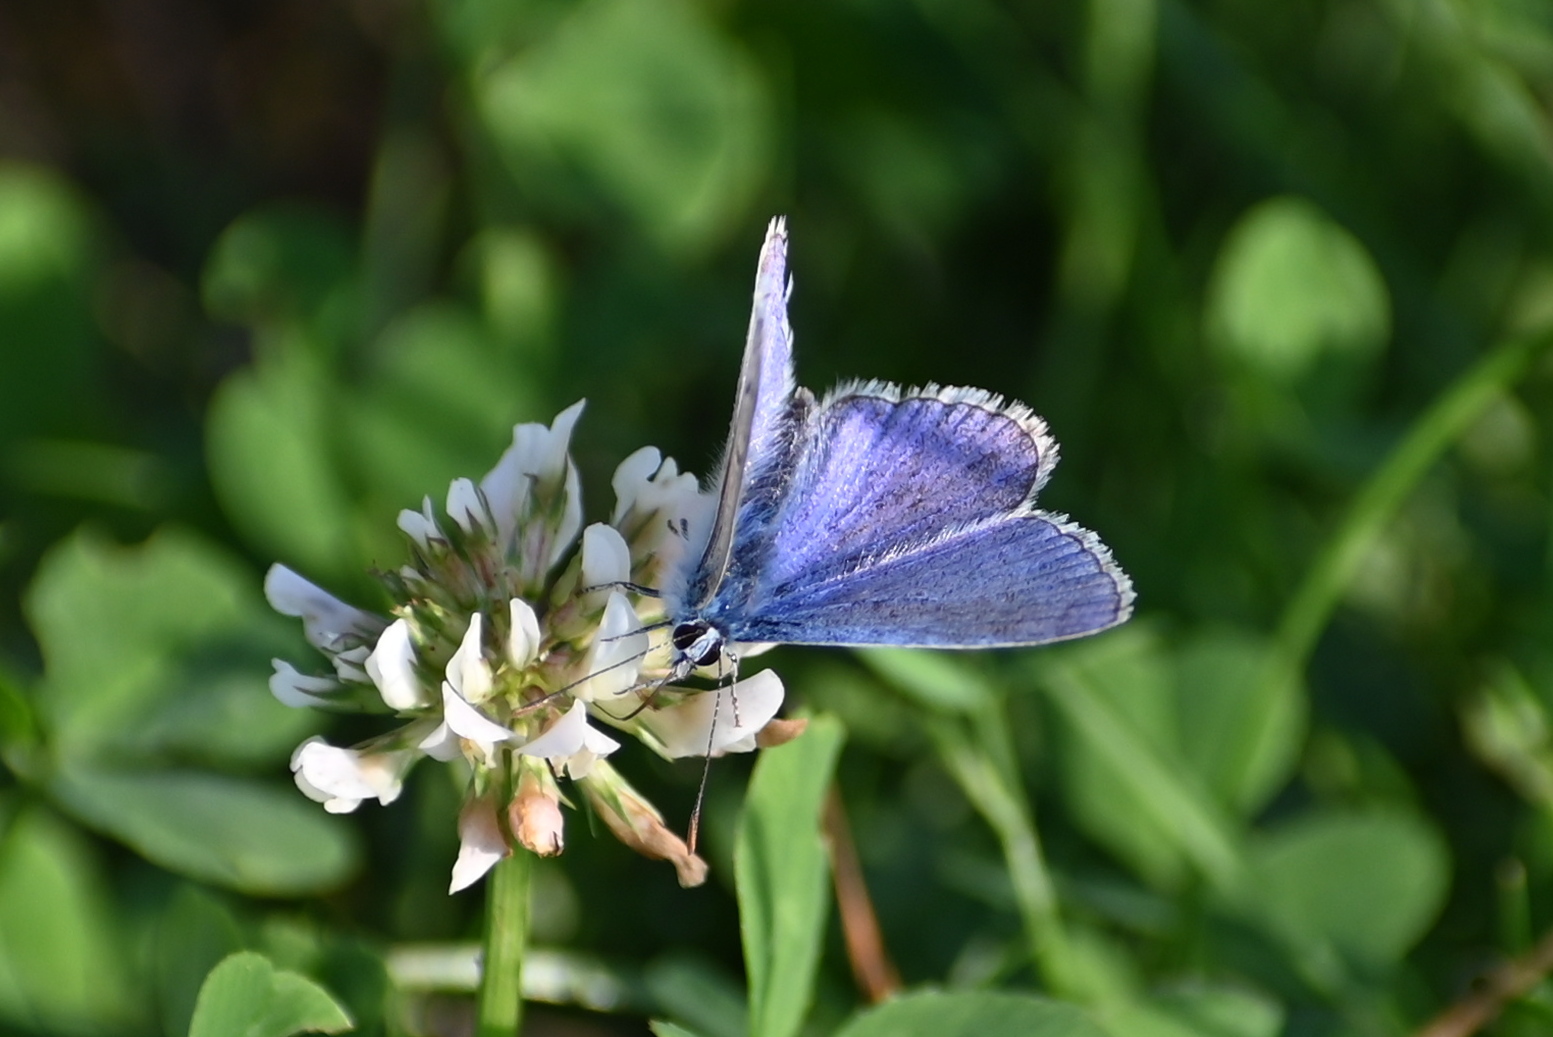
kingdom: Animalia
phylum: Arthropoda
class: Insecta
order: Lepidoptera
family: Lycaenidae
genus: Polyommatus
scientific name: Polyommatus icarus
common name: Common blue
